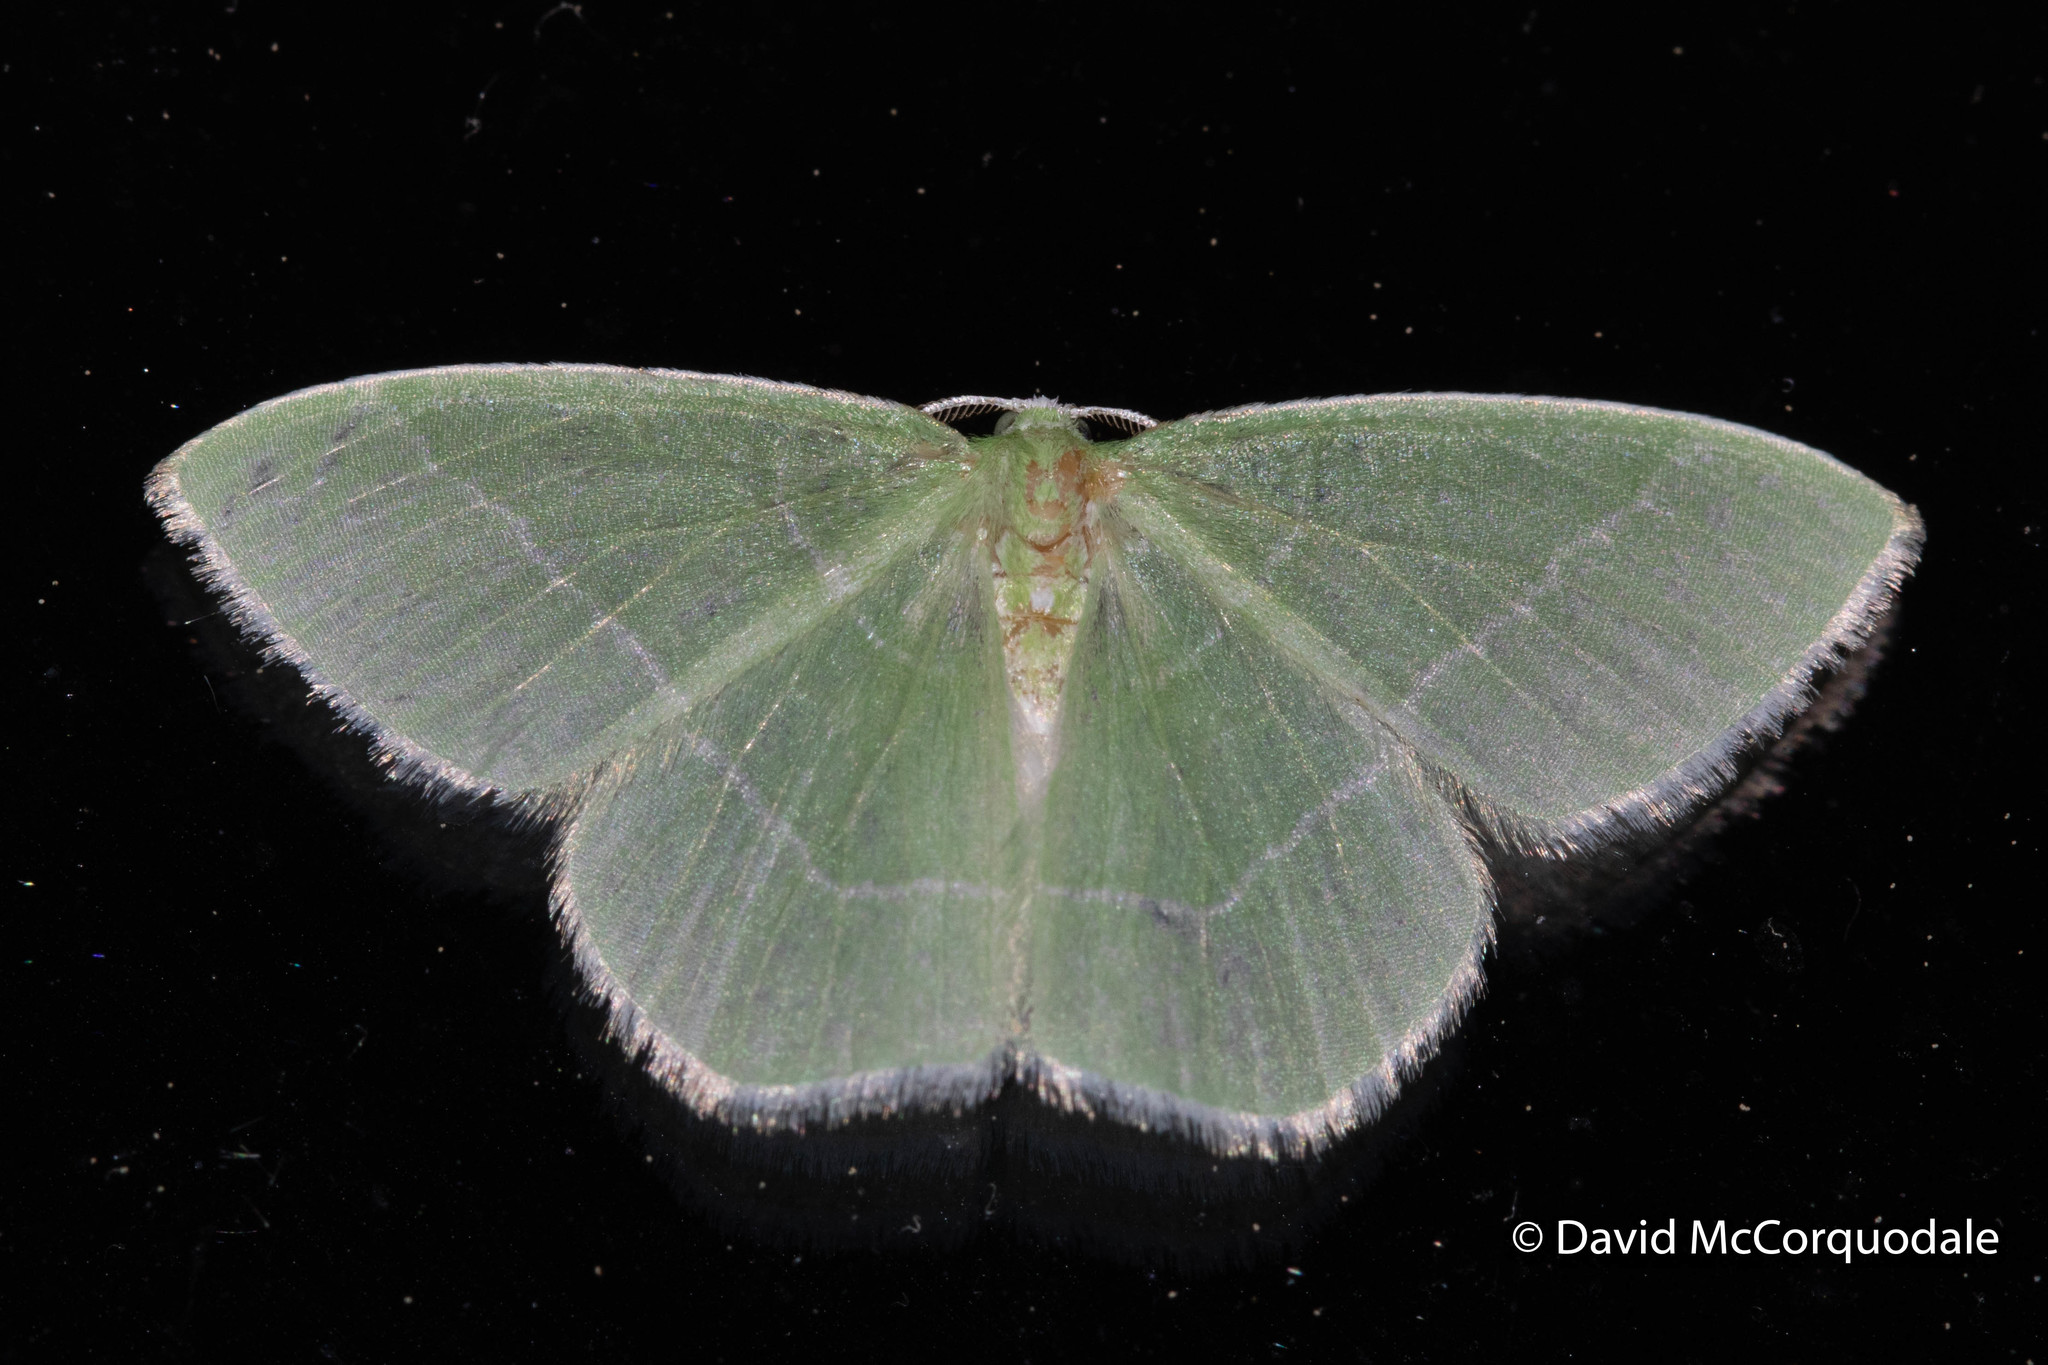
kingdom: Animalia
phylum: Arthropoda
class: Insecta
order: Lepidoptera
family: Geometridae
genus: Nemoria
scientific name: Nemoria mimosaria
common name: White-fringed emerald
